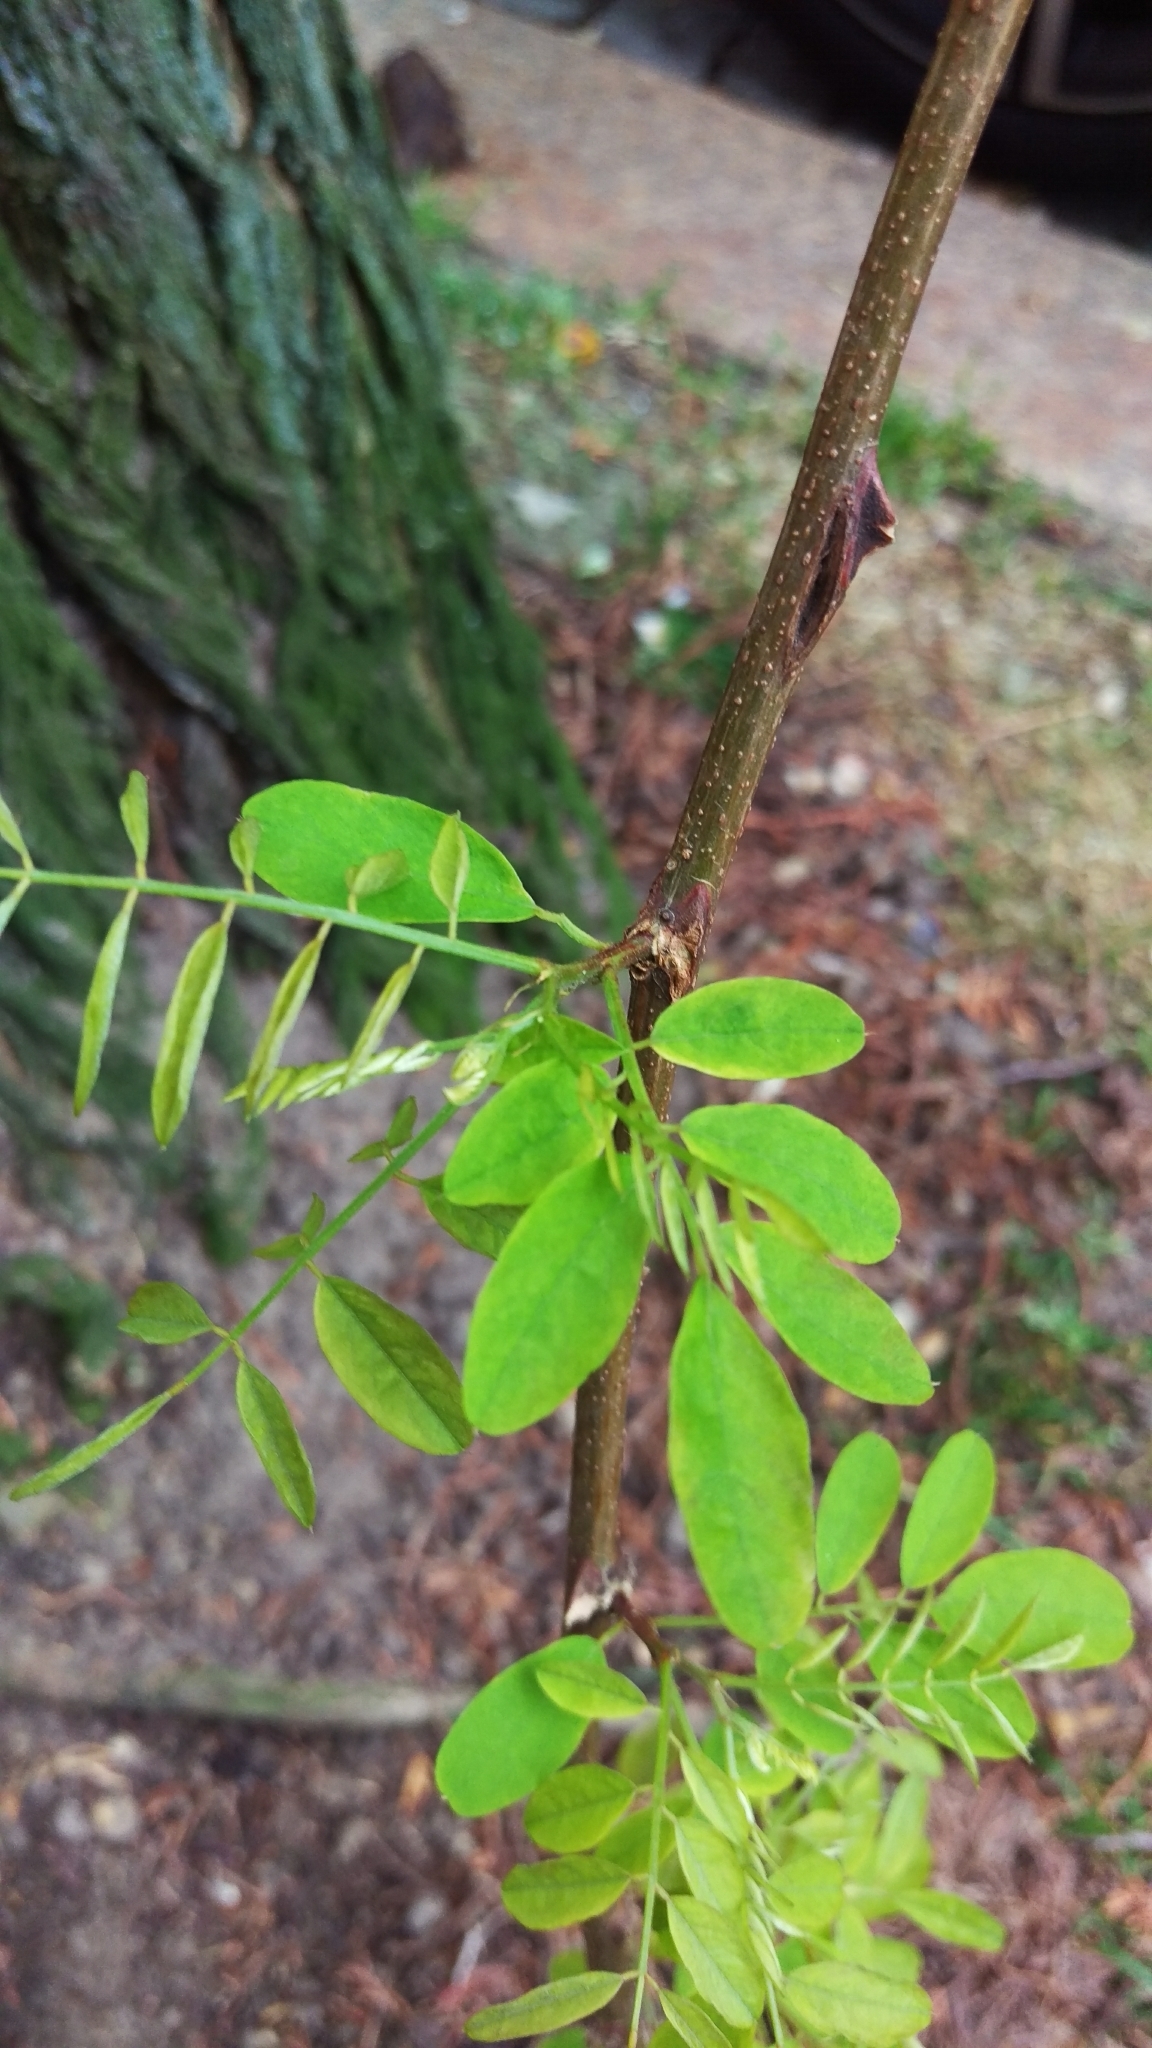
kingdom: Plantae
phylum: Tracheophyta
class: Magnoliopsida
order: Fabales
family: Fabaceae
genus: Robinia
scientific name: Robinia pseudoacacia
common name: Black locust
